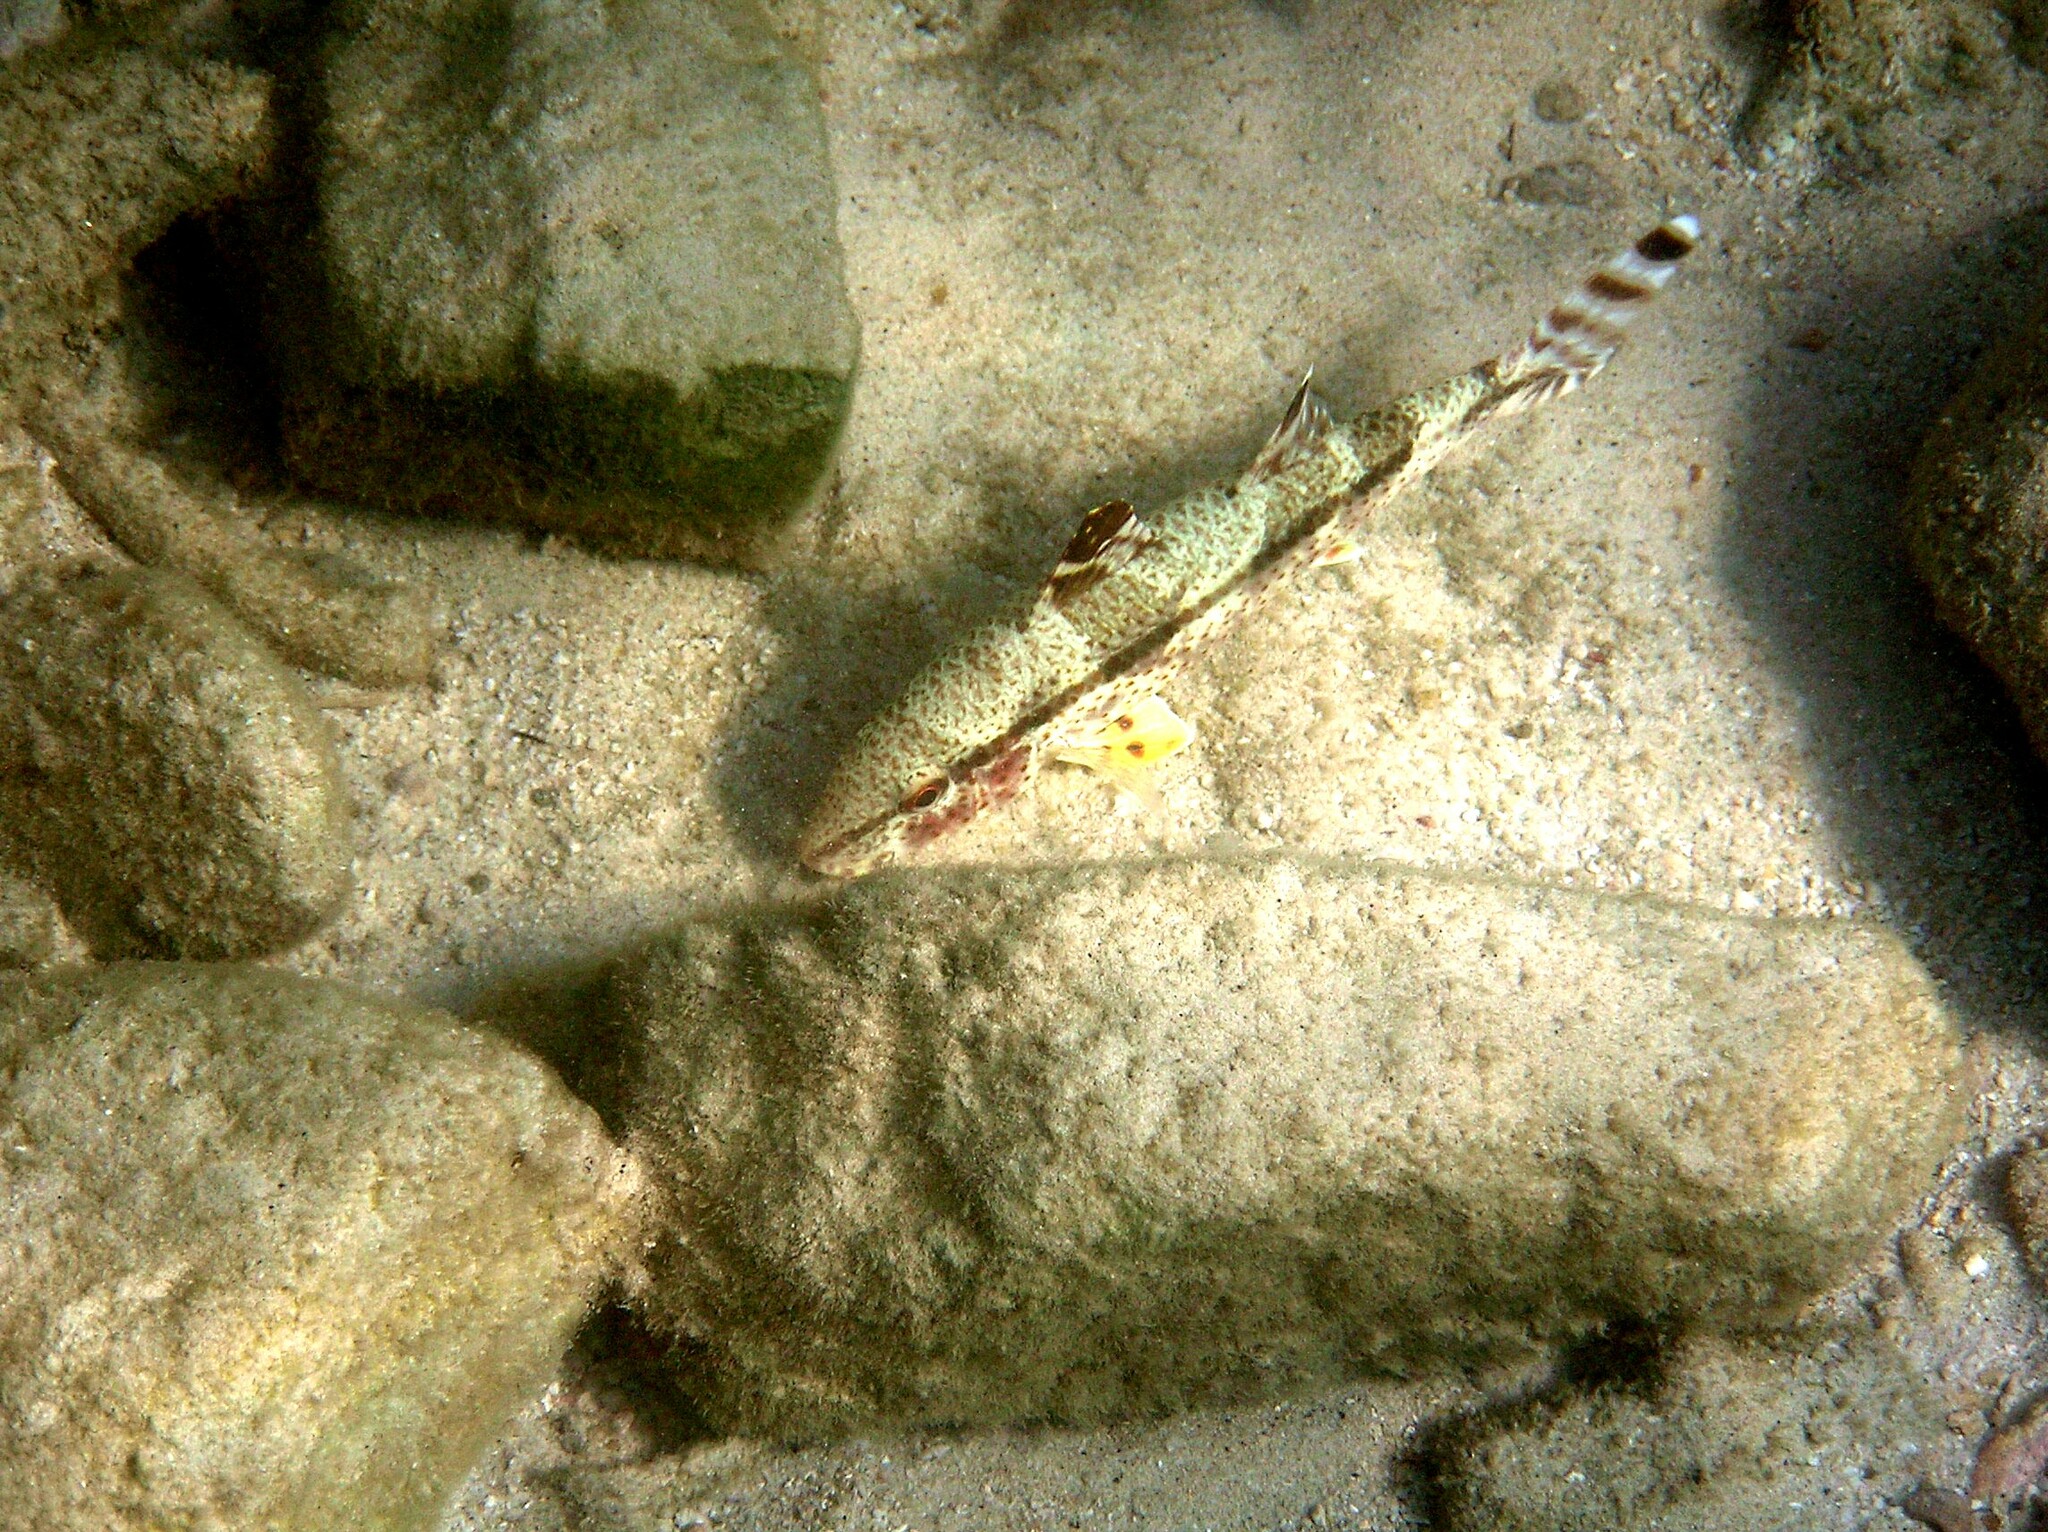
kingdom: Animalia
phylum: Chordata
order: Perciformes
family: Mullidae
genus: Upeneus
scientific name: Upeneus tragula
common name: Freckled goatfish
